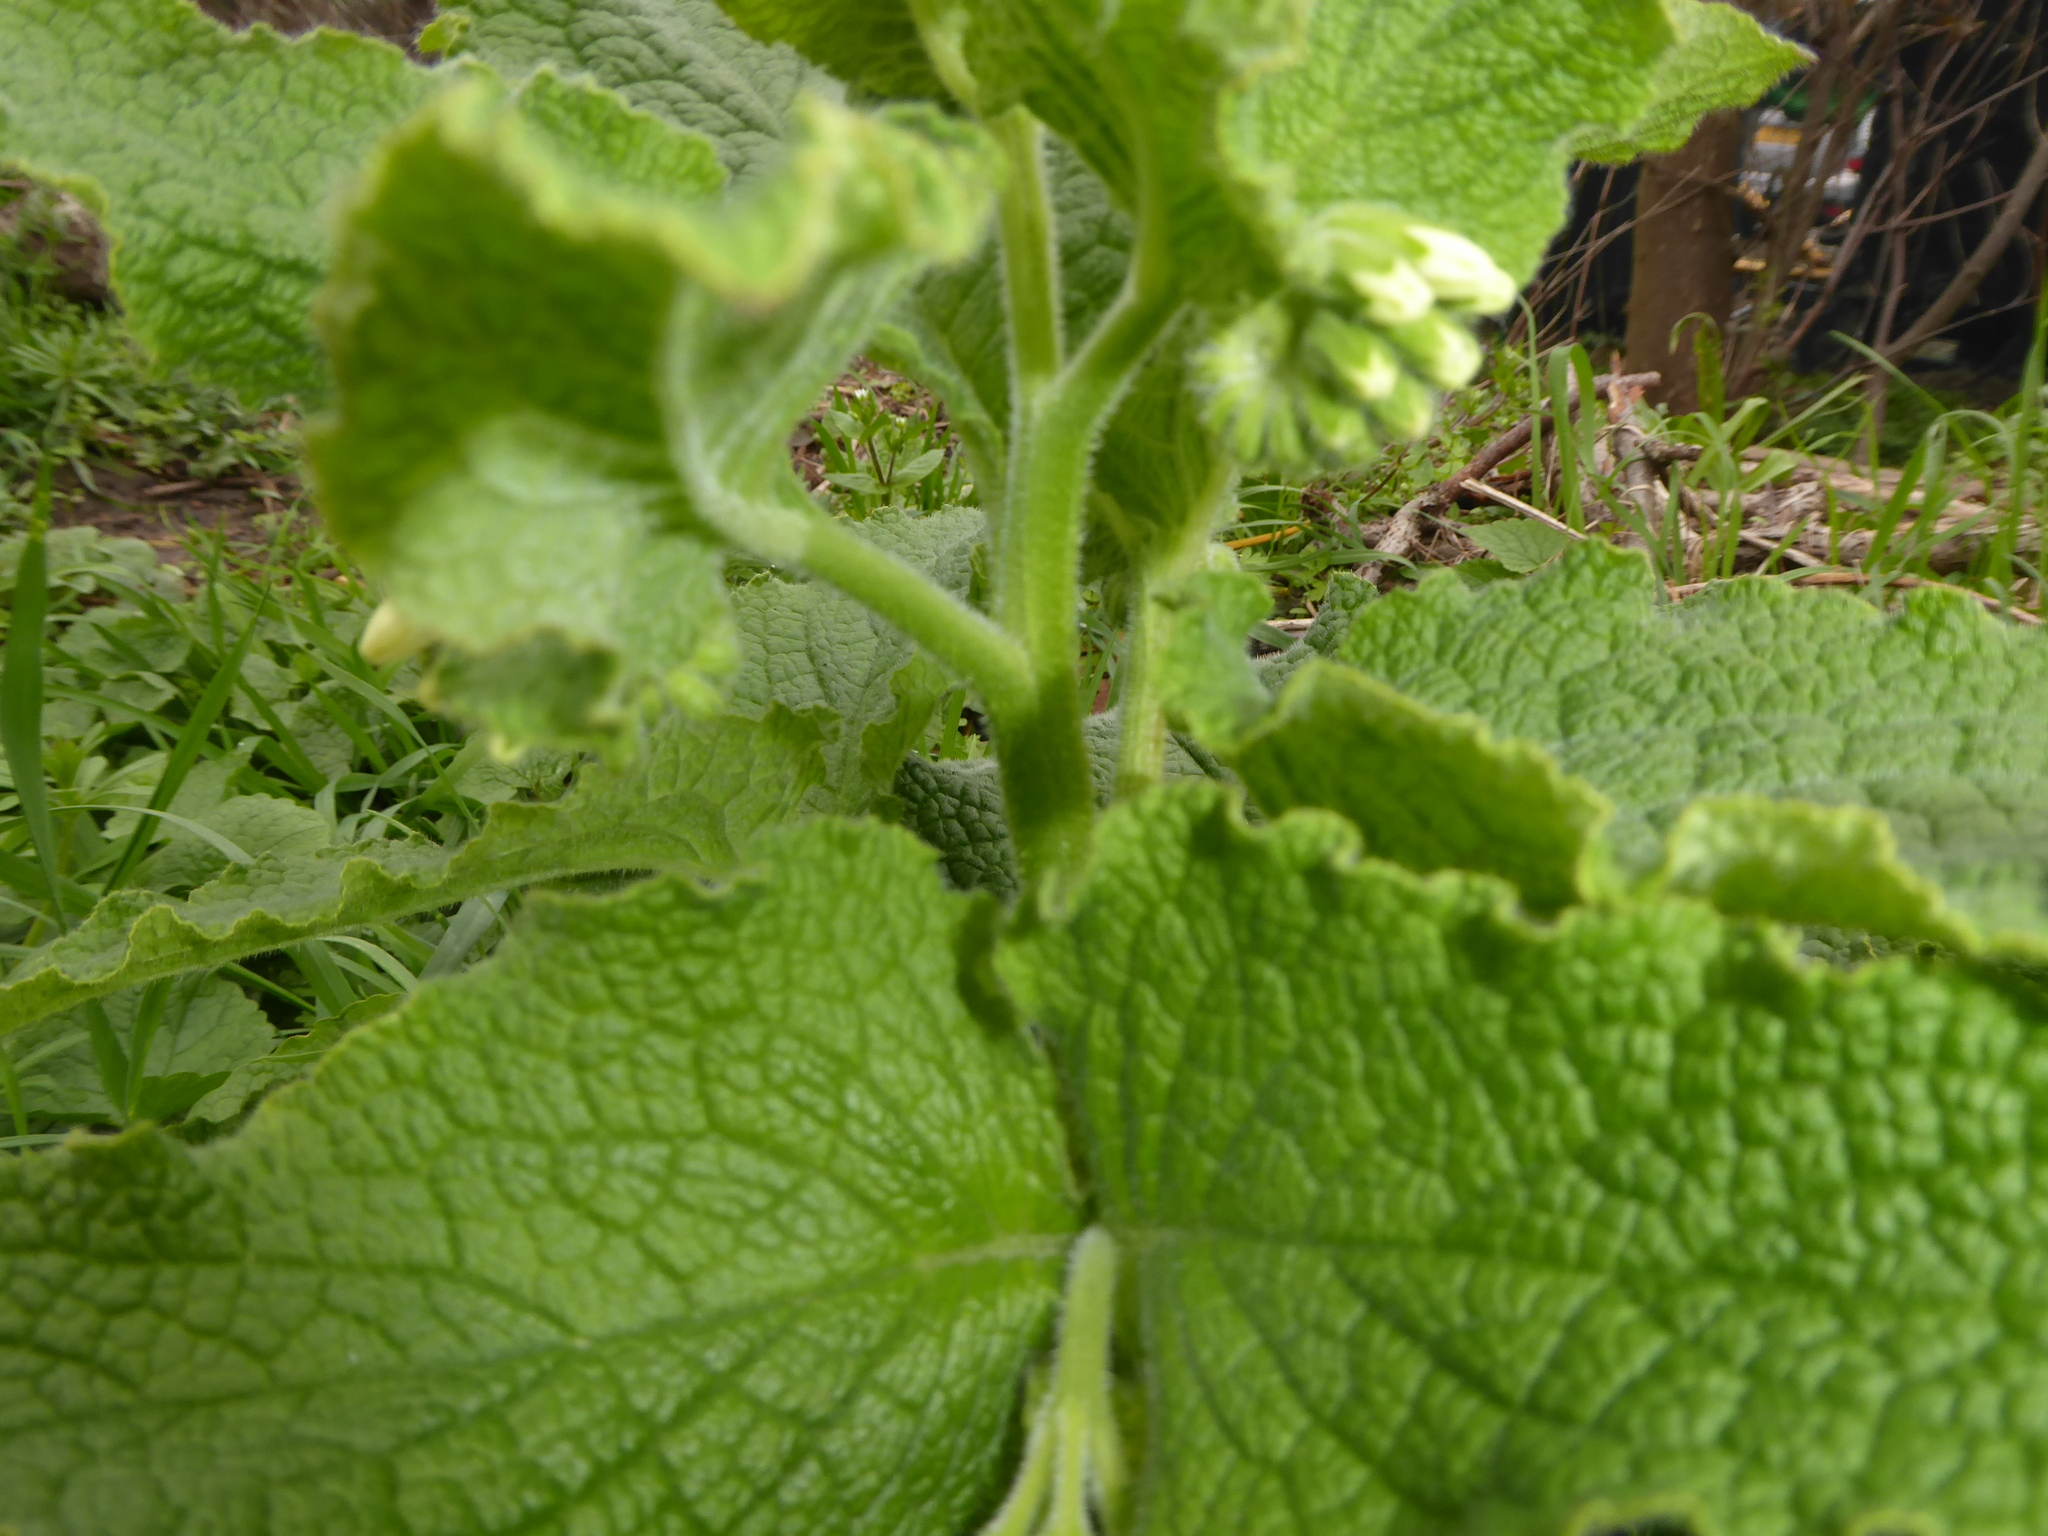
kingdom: Plantae
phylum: Tracheophyta
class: Magnoliopsida
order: Boraginales
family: Boraginaceae
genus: Symphytum
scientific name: Symphytum orientale
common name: White comfrey
